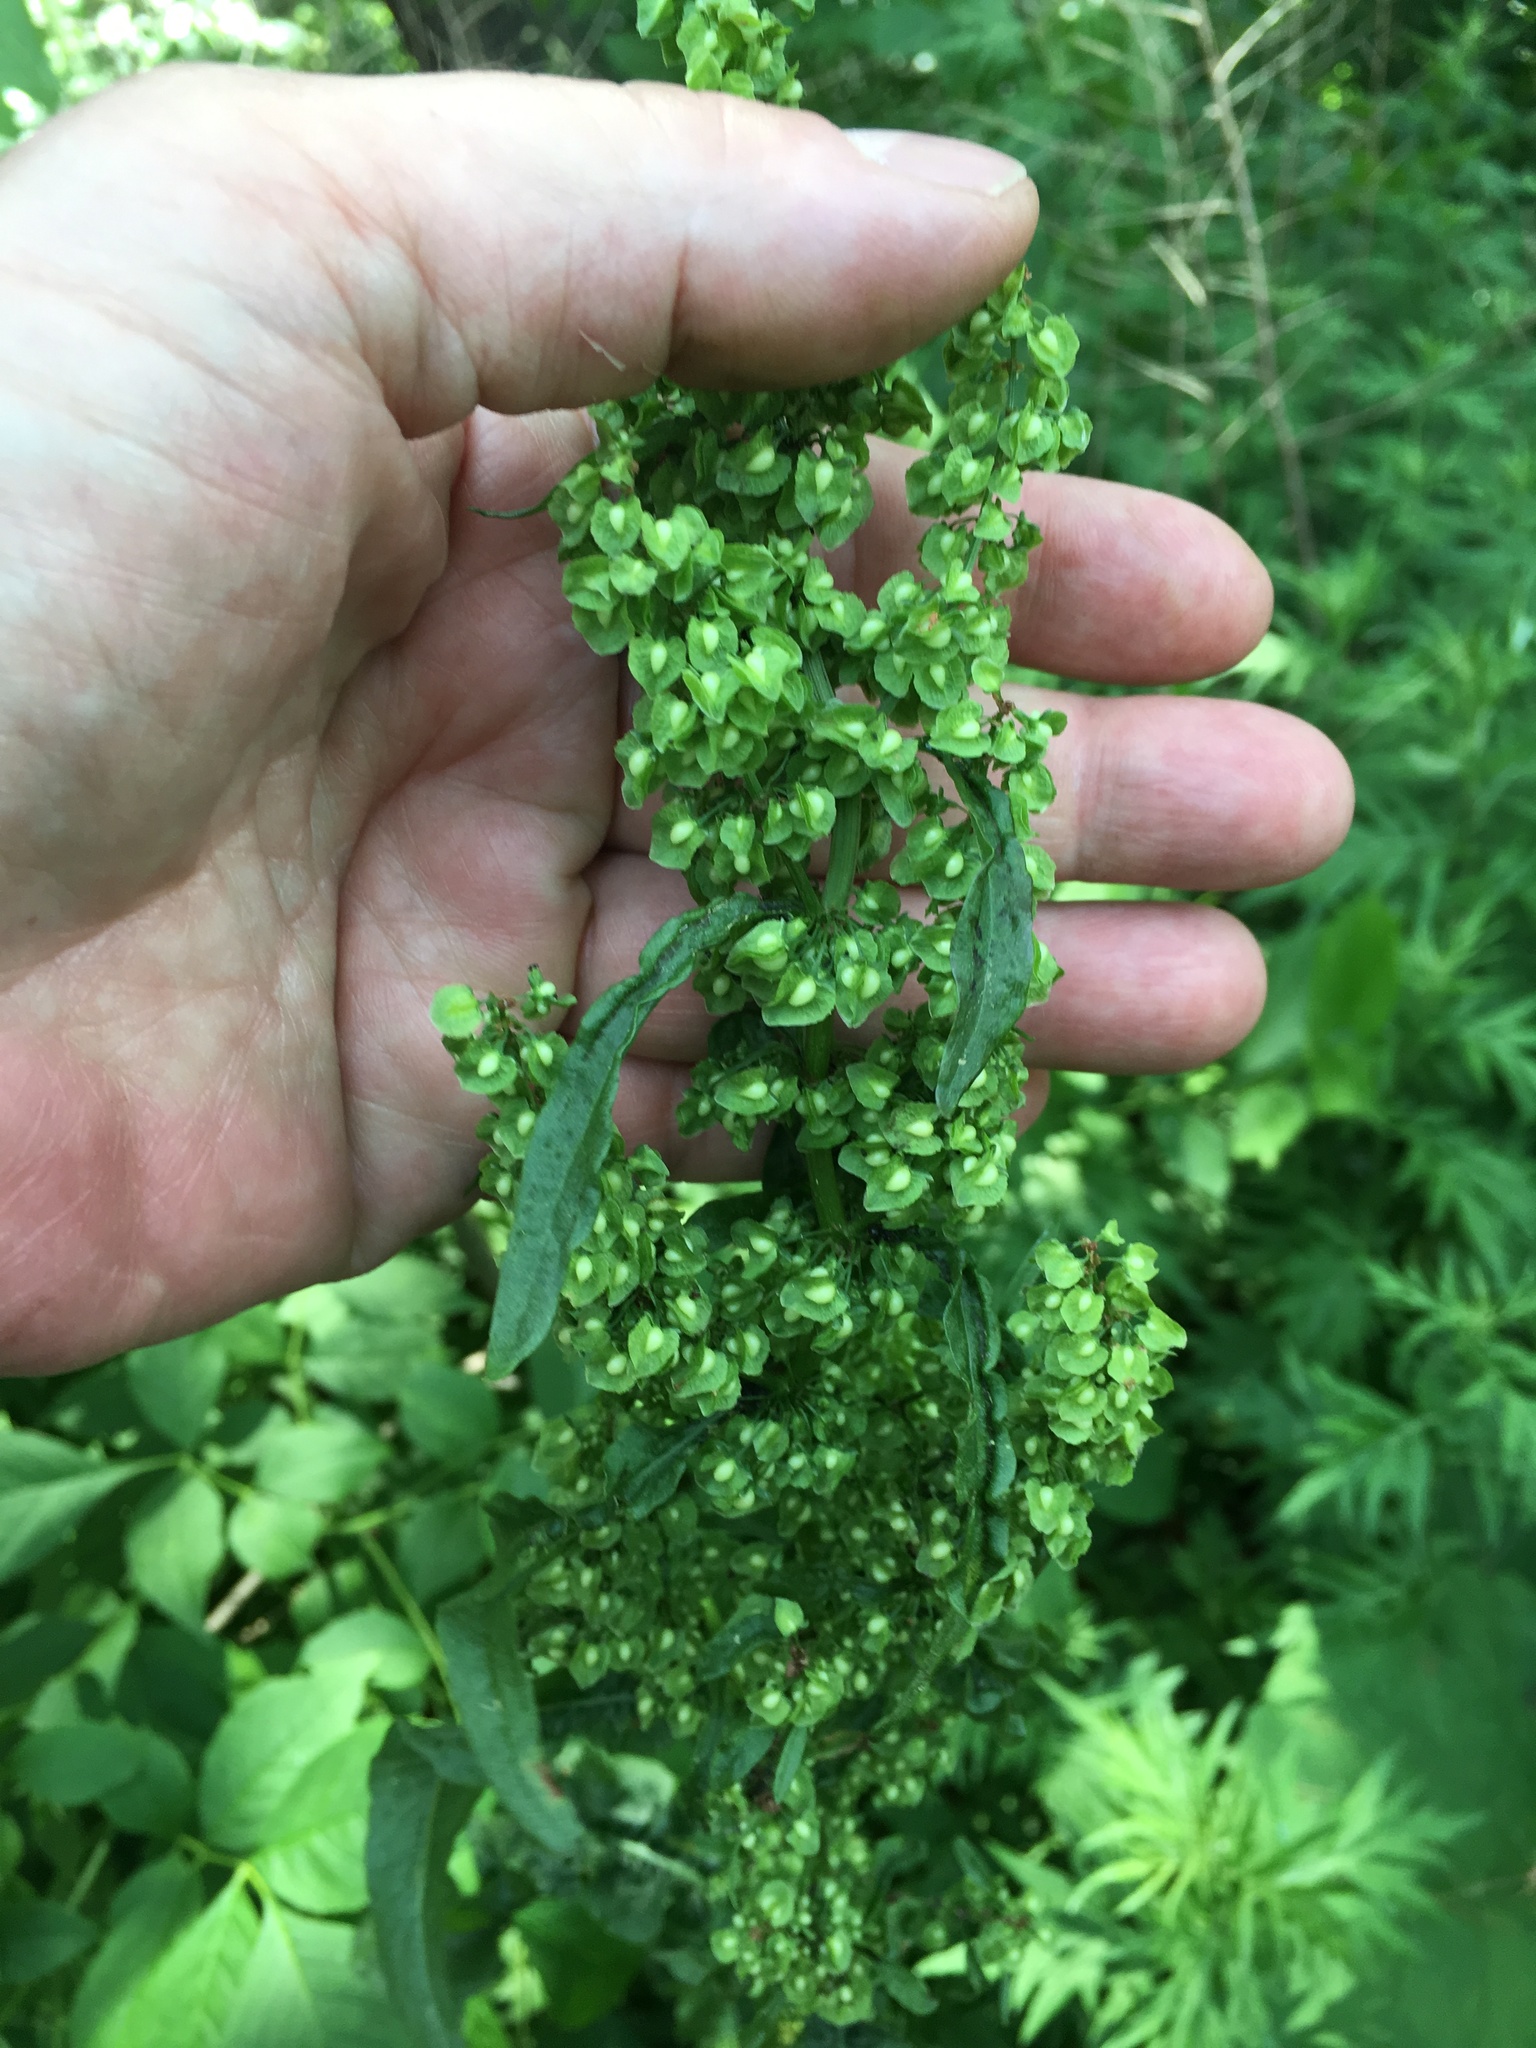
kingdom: Plantae
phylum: Tracheophyta
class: Magnoliopsida
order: Caryophyllales
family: Polygonaceae
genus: Rumex
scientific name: Rumex crispus
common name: Curled dock
